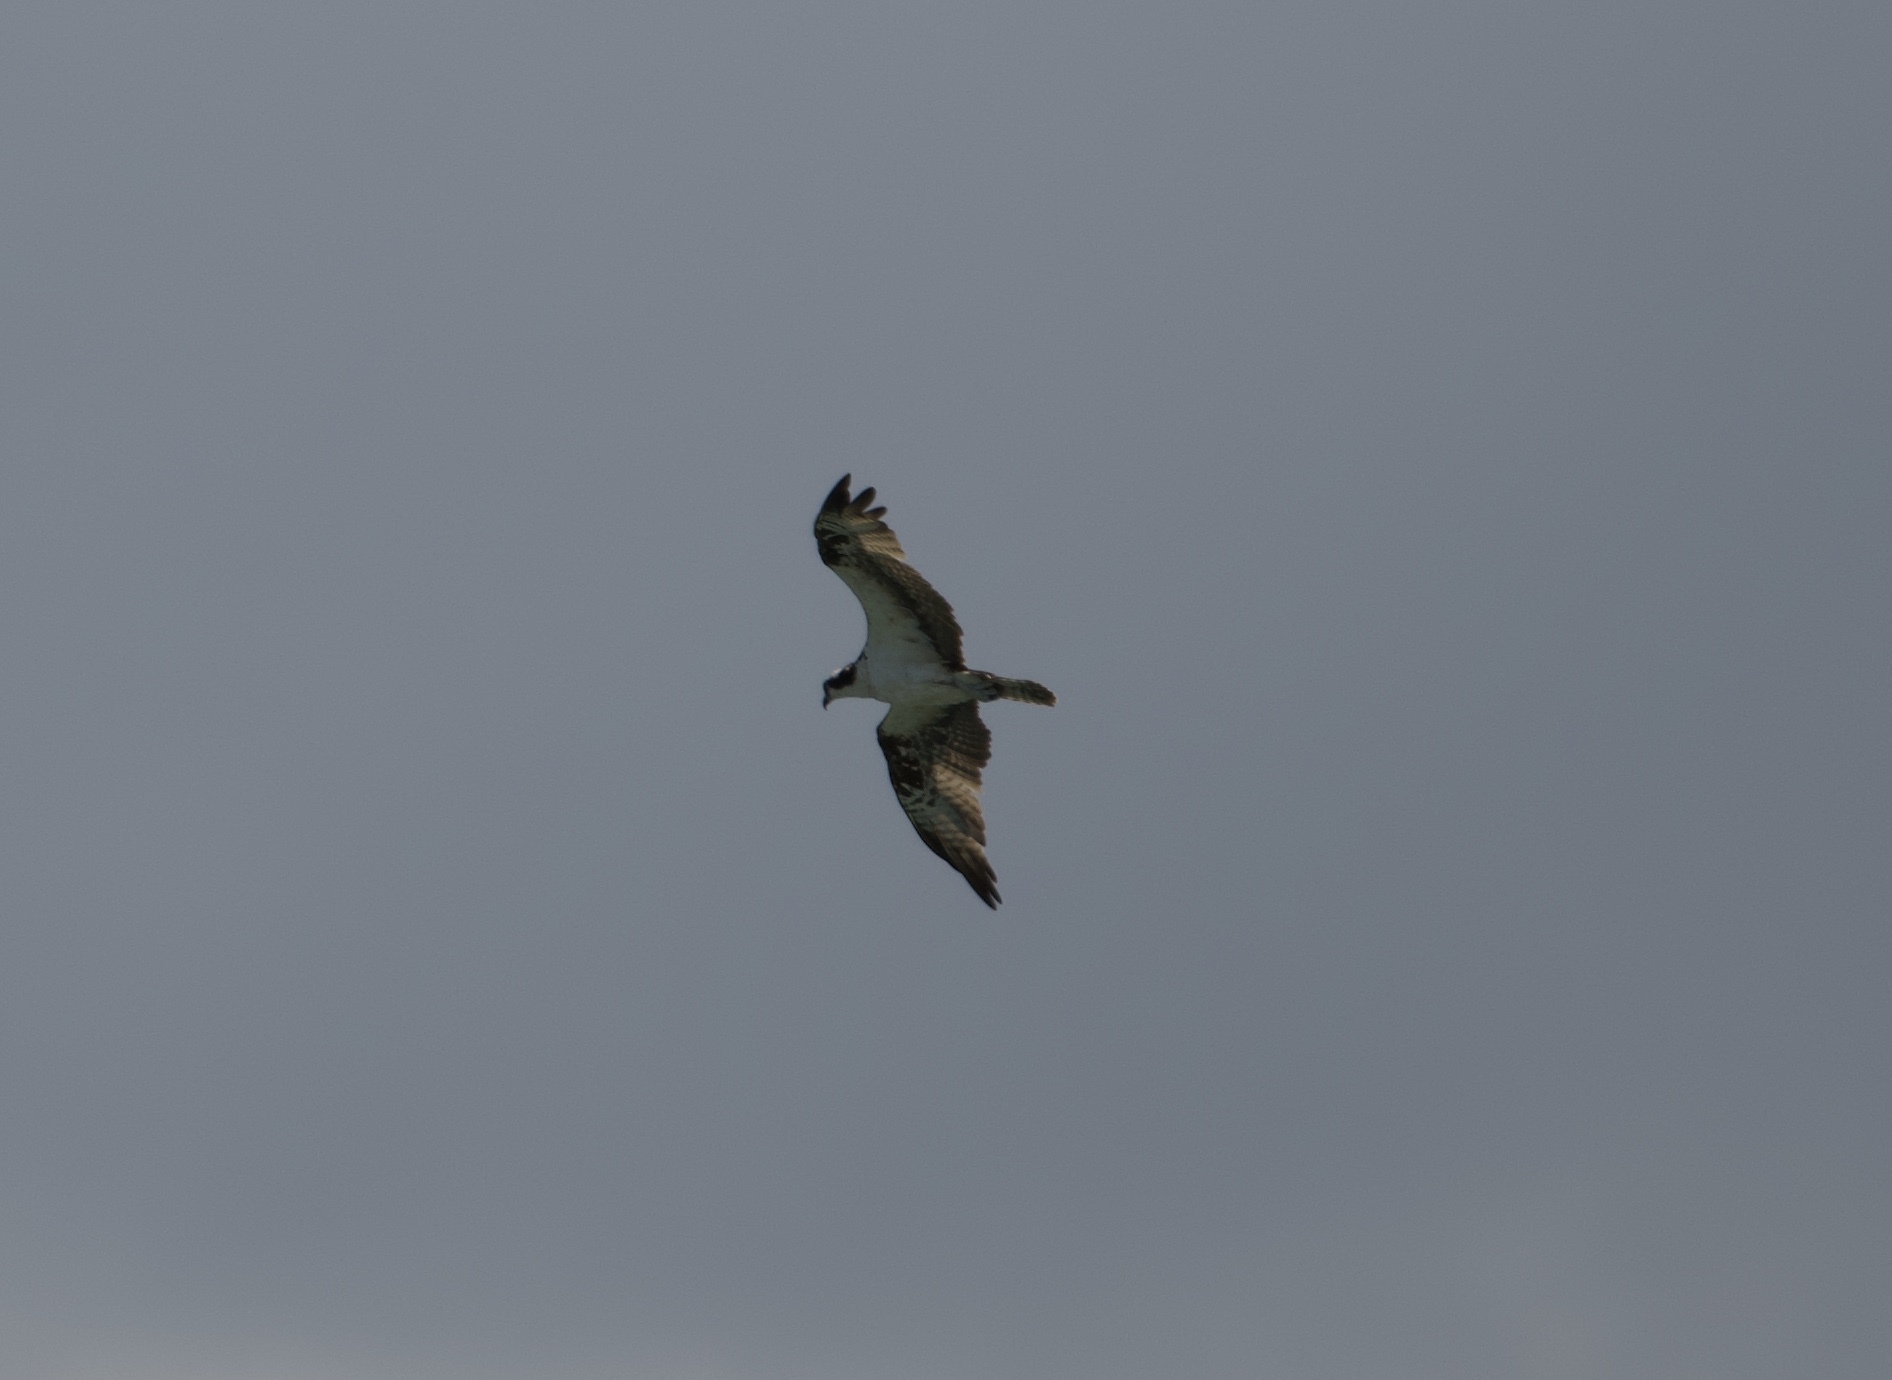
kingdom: Animalia
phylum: Chordata
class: Aves
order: Accipitriformes
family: Pandionidae
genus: Pandion
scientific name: Pandion haliaetus
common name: Osprey
